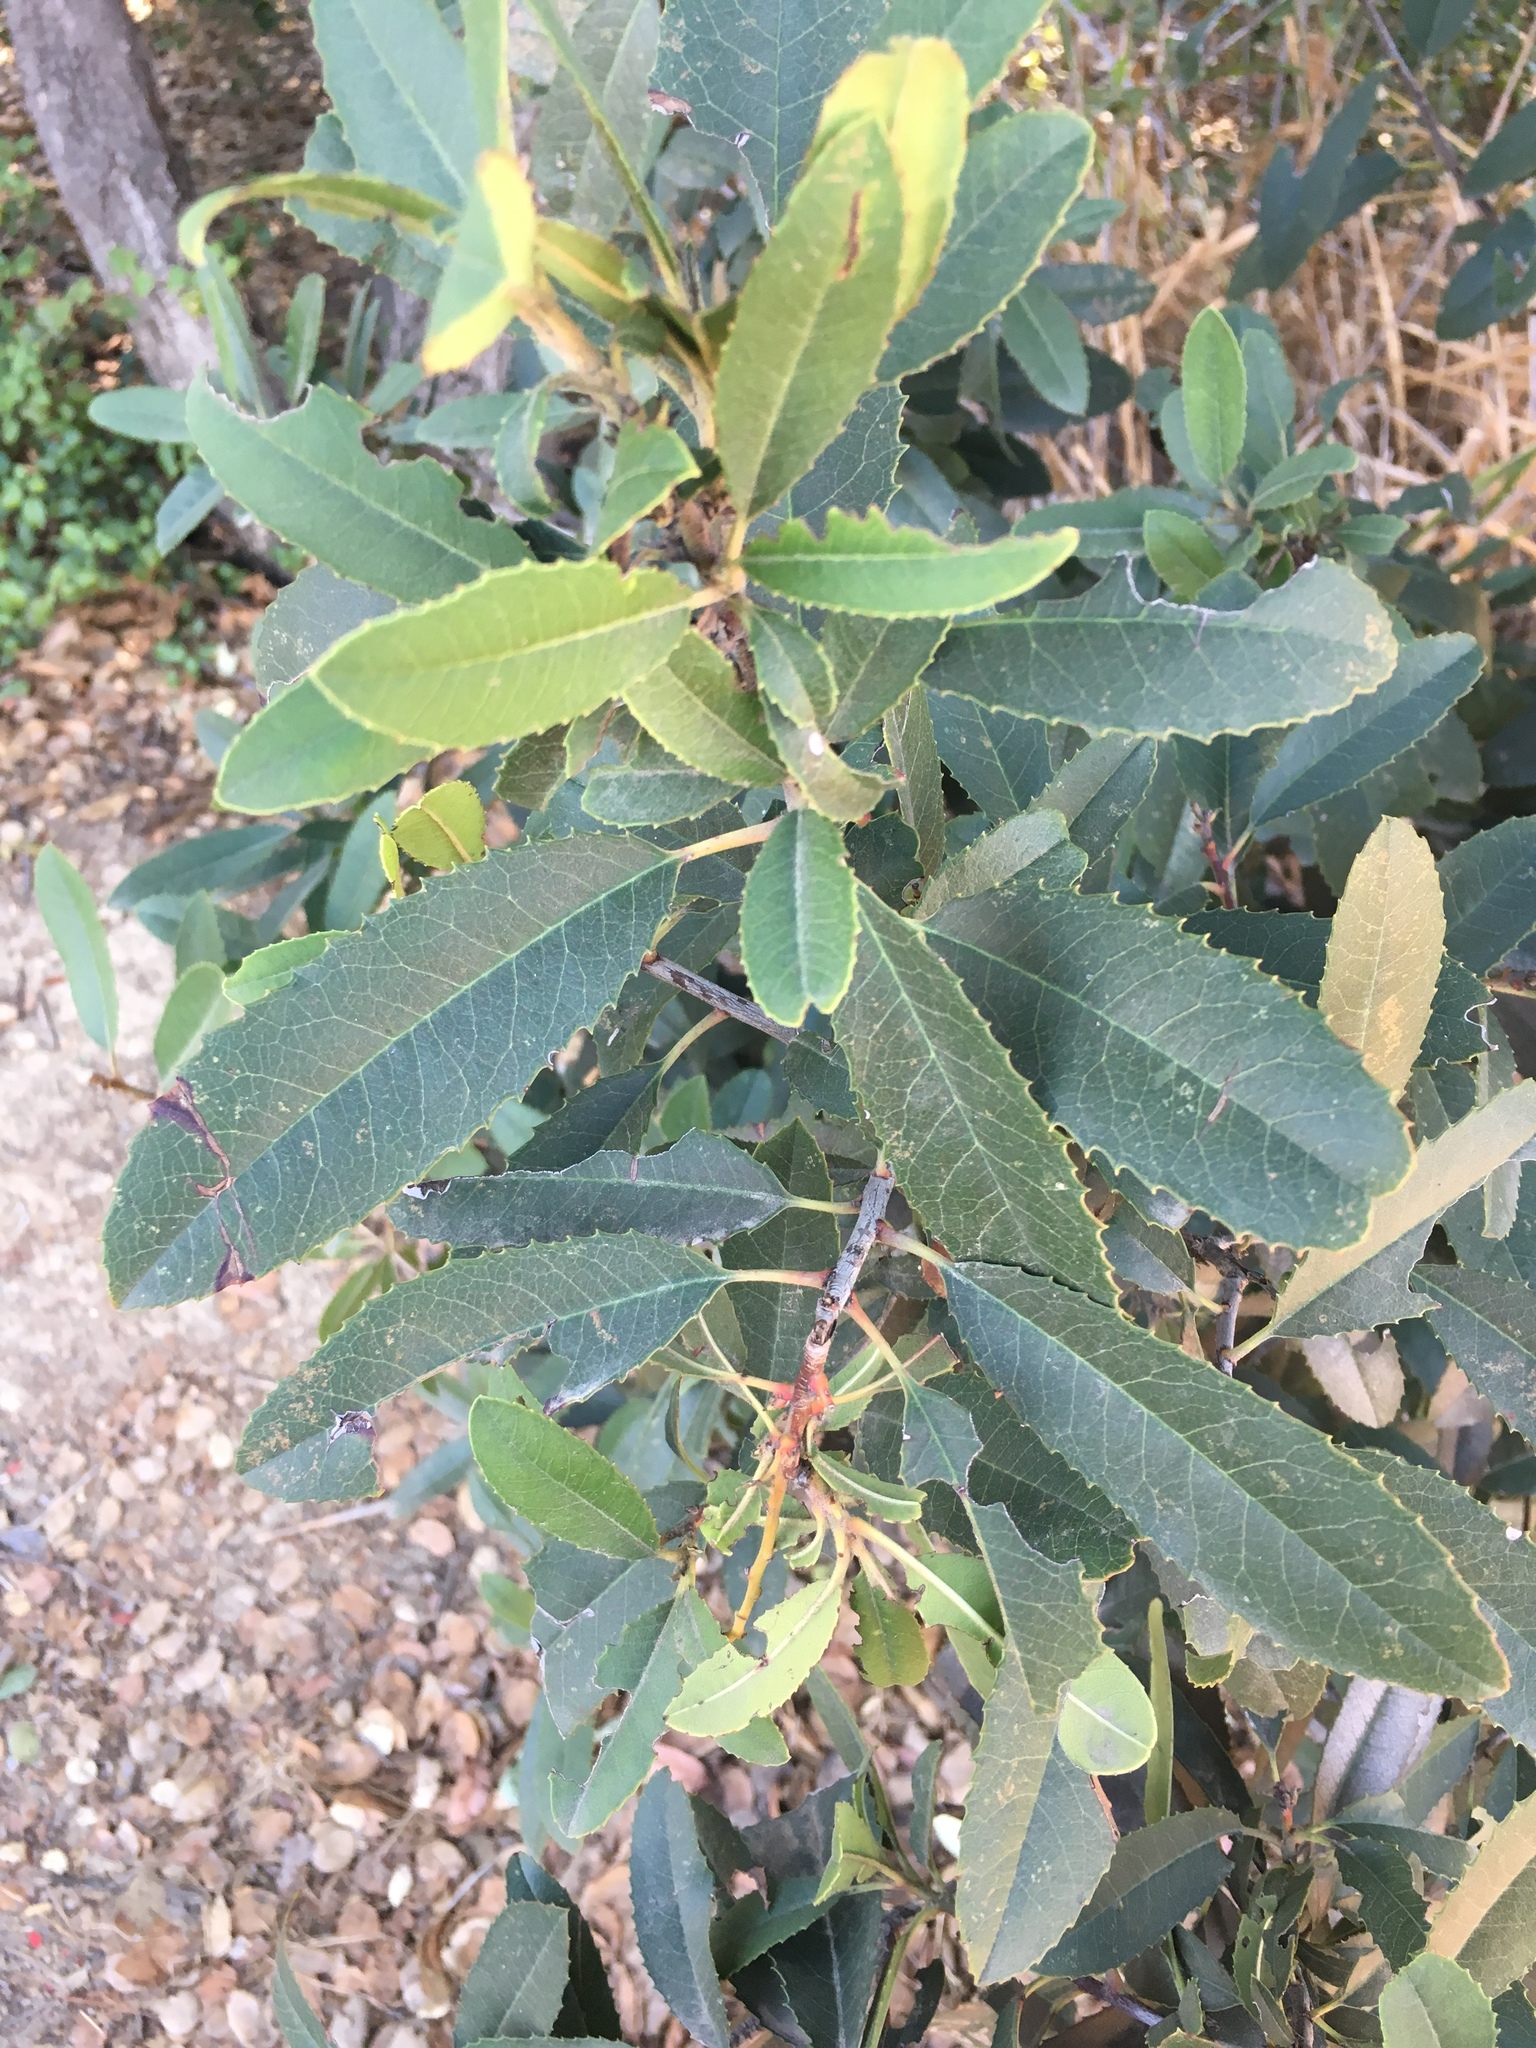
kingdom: Plantae
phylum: Tracheophyta
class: Magnoliopsida
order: Rosales
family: Rosaceae
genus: Heteromeles
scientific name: Heteromeles arbutifolia
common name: California-holly
